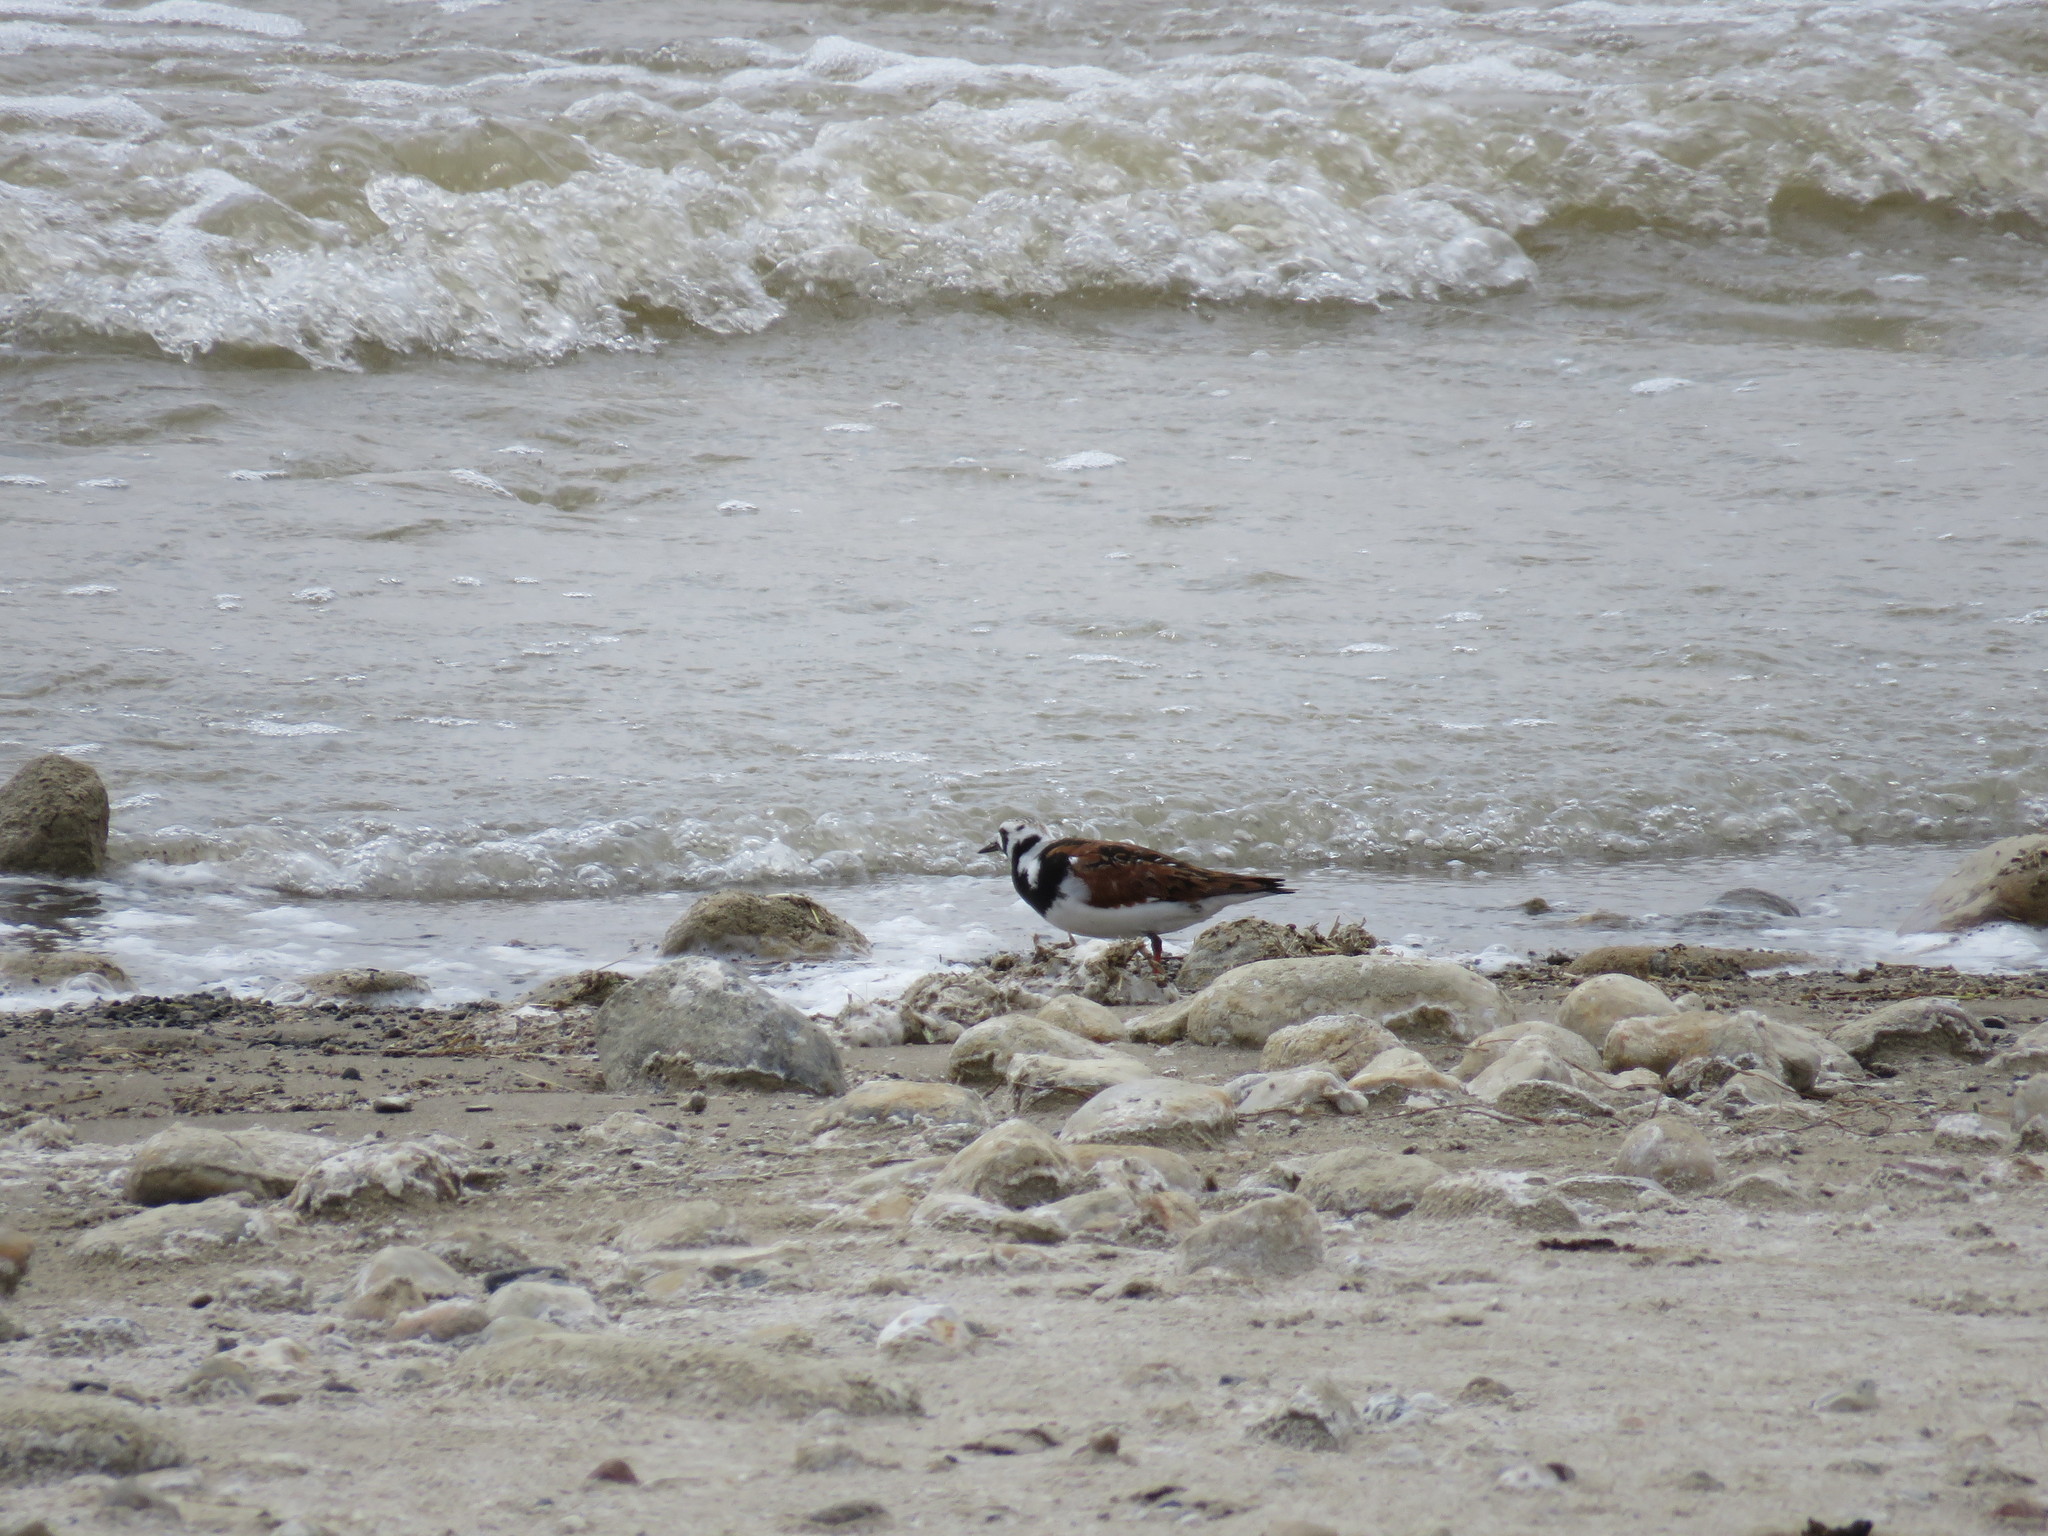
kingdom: Animalia
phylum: Chordata
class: Aves
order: Charadriiformes
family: Scolopacidae
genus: Arenaria
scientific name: Arenaria interpres
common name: Ruddy turnstone
